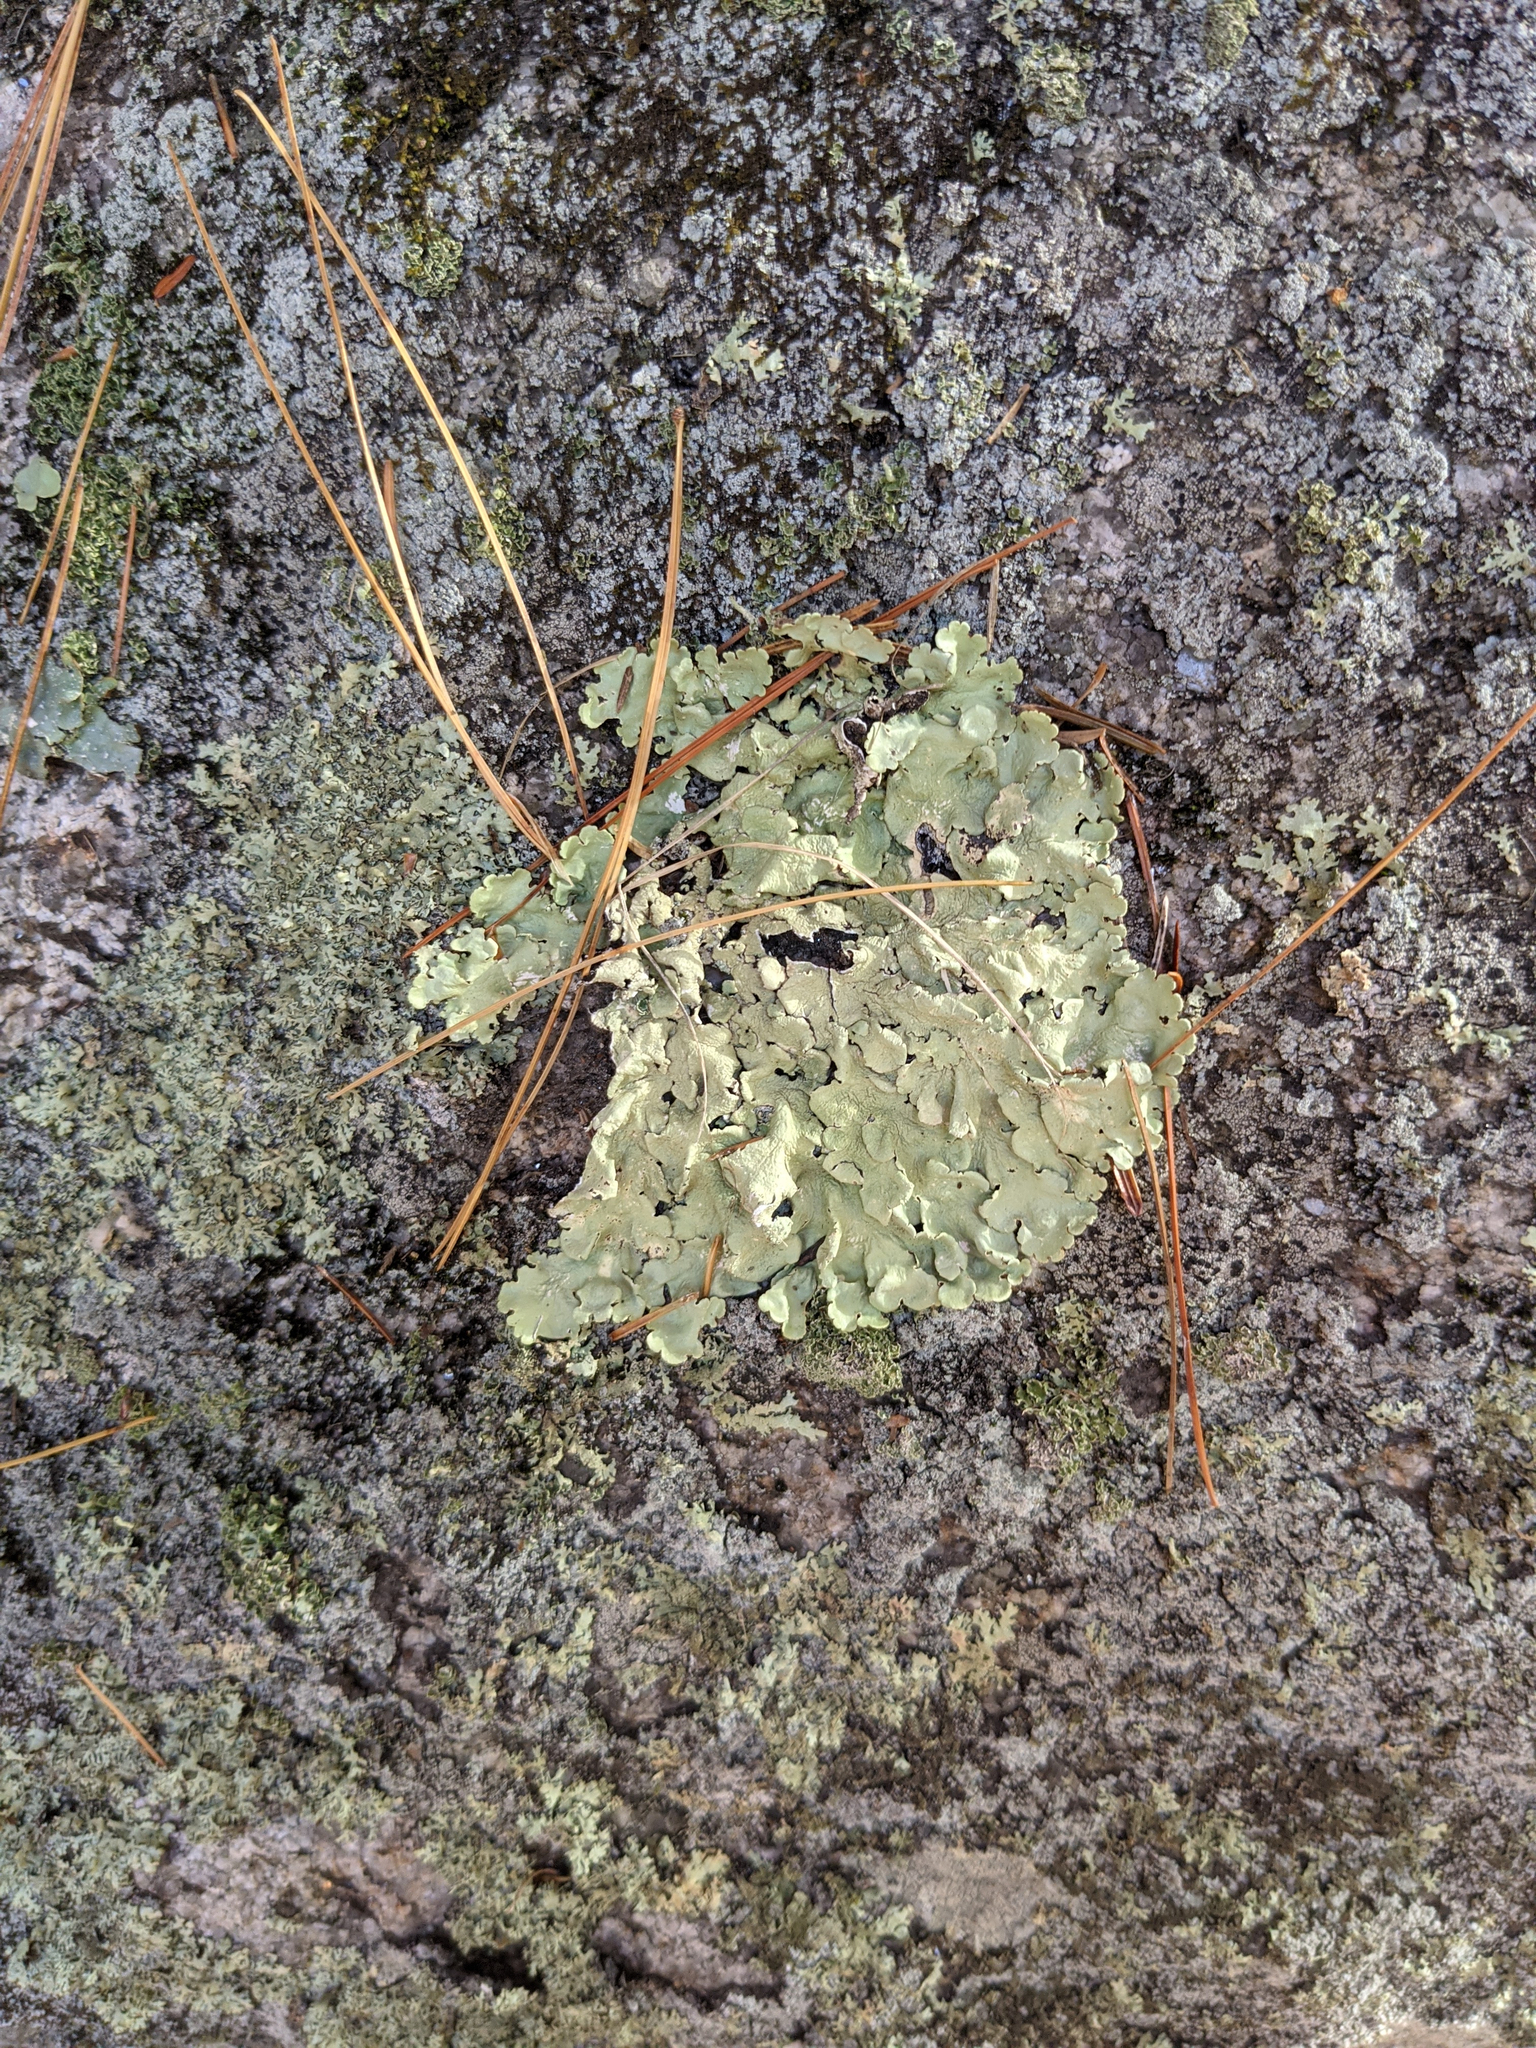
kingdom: Fungi
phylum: Ascomycota
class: Lecanoromycetes
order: Lecanorales
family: Parmeliaceae
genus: Flavoparmelia
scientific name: Flavoparmelia caperata
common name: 40-mile per hour lichen
